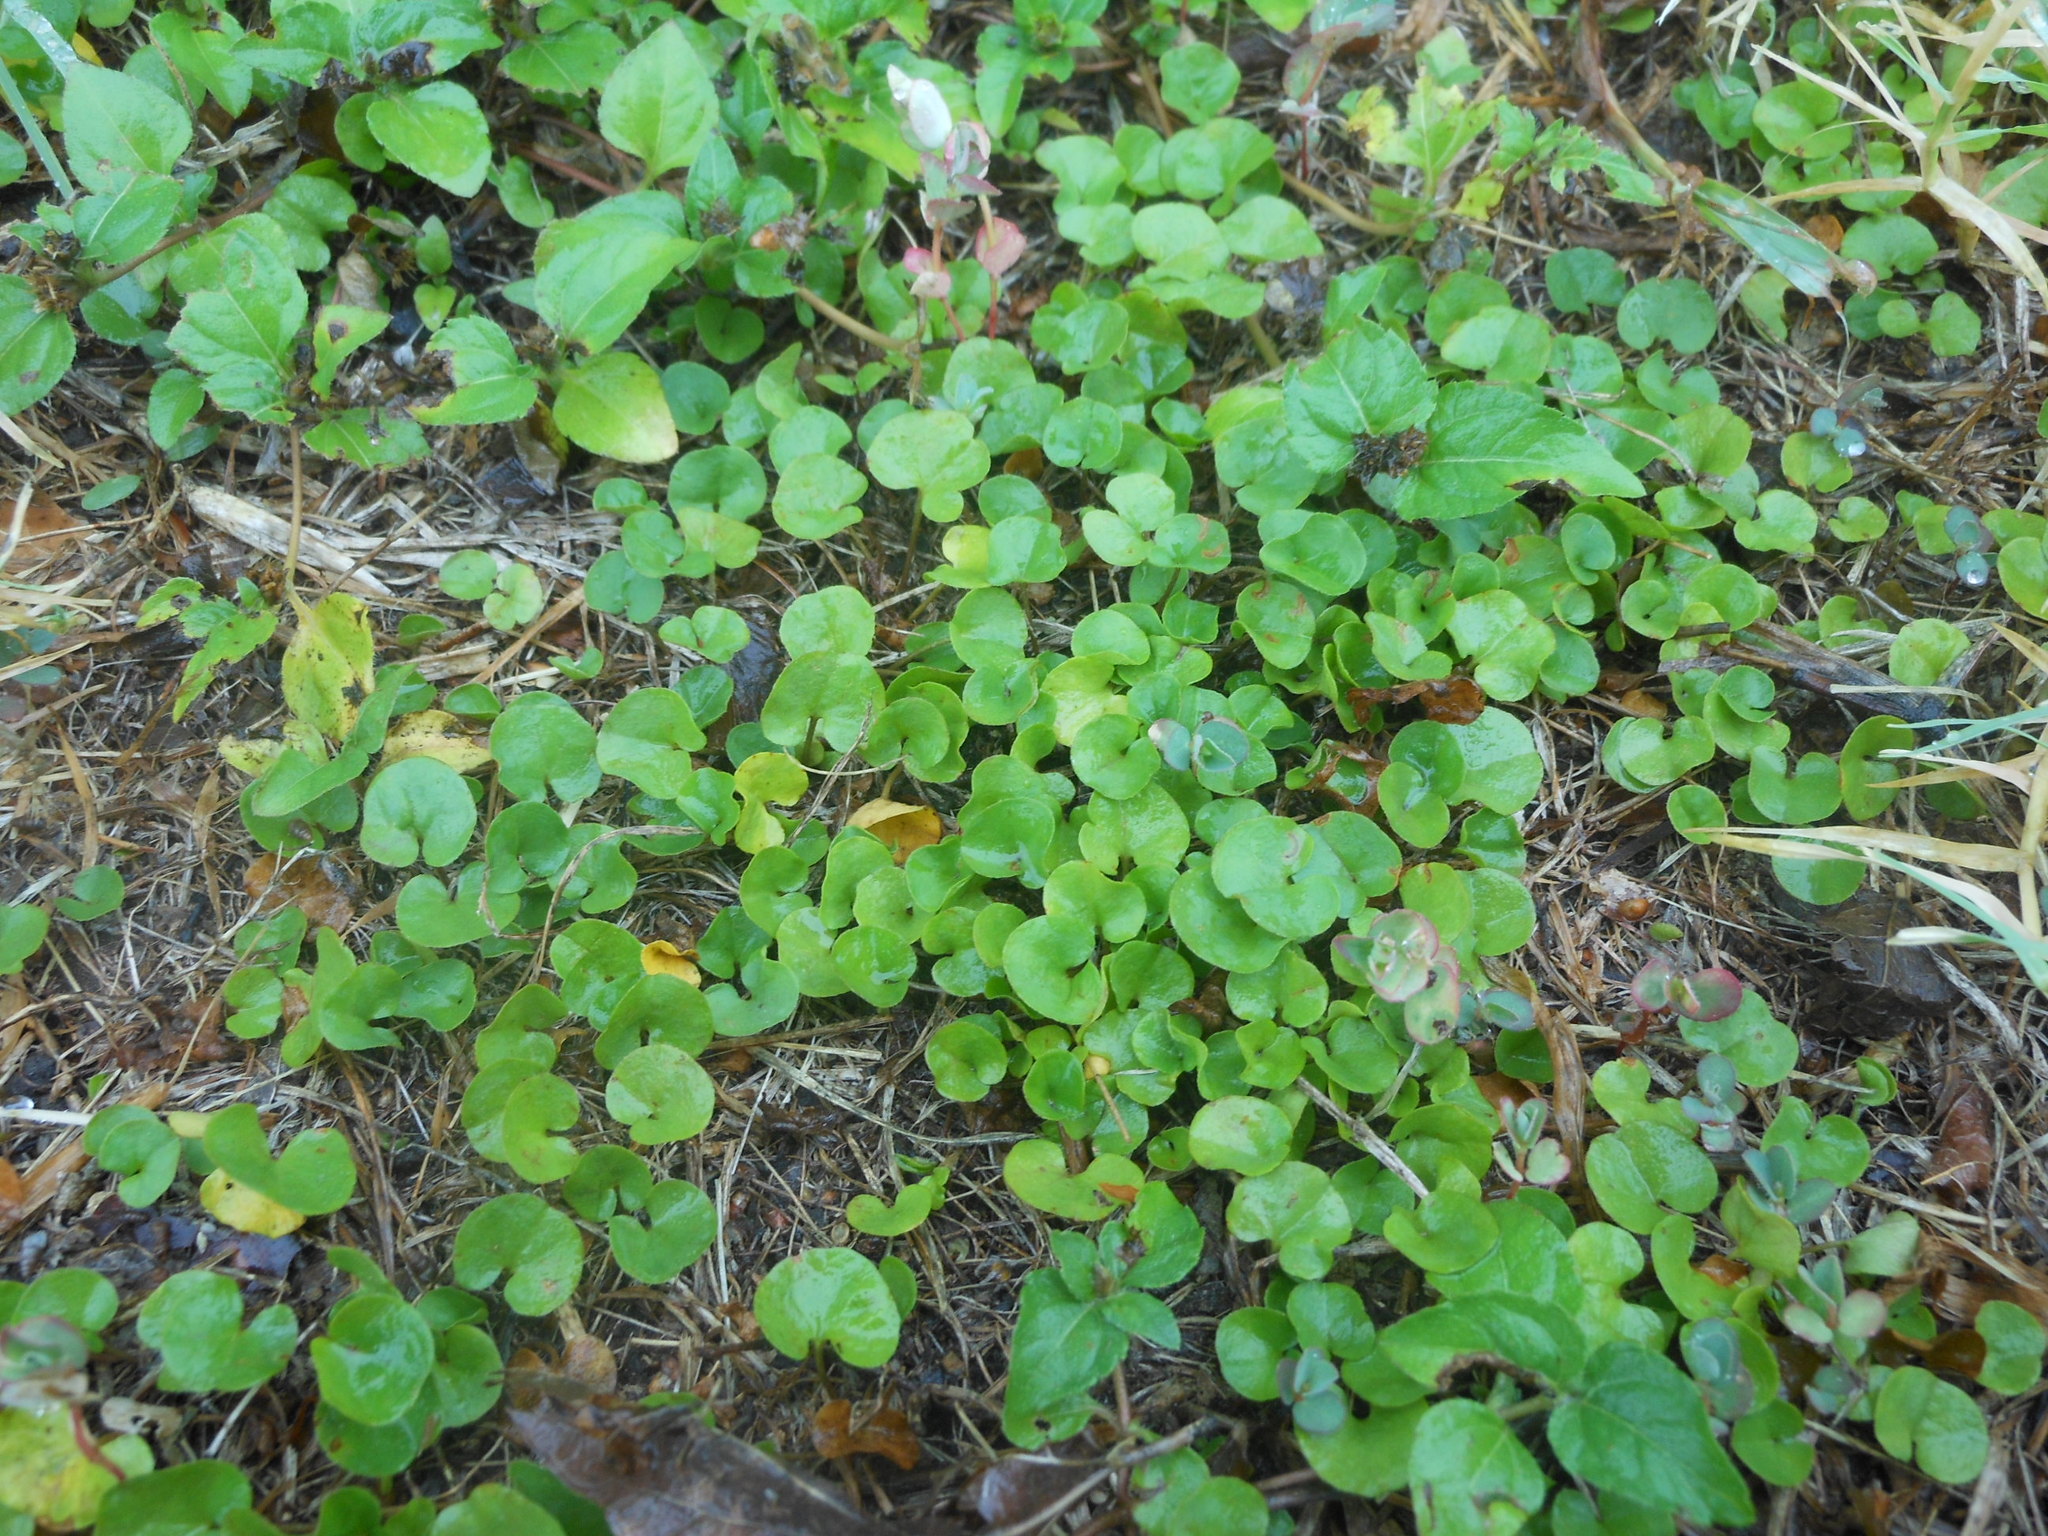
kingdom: Plantae
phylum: Tracheophyta
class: Magnoliopsida
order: Solanales
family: Convolvulaceae
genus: Dichondra
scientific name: Dichondra carolinensis
